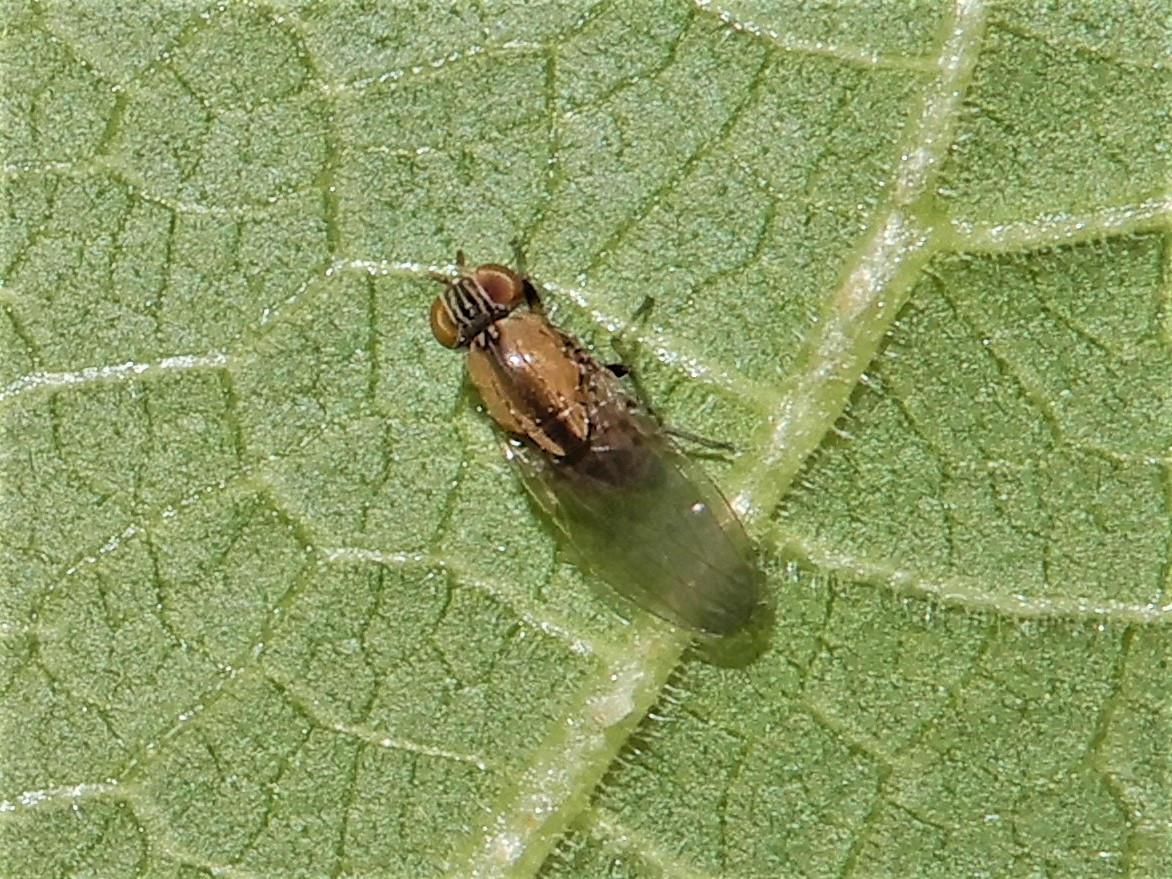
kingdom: Animalia
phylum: Arthropoda
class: Insecta
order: Diptera
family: Lauxaniidae
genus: Sapromyza
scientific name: Sapromyza neozelandica
